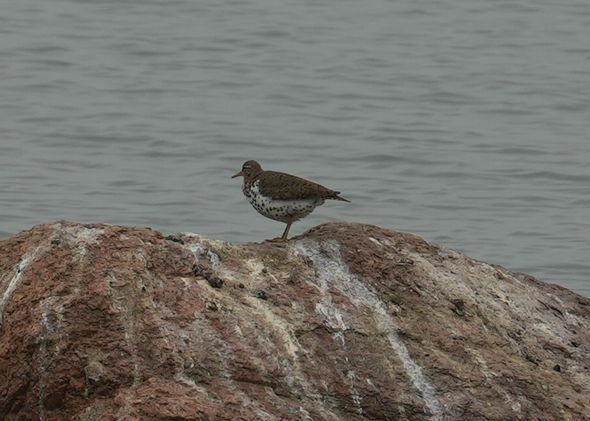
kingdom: Animalia
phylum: Chordata
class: Aves
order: Charadriiformes
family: Scolopacidae
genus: Actitis
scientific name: Actitis macularius
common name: Spotted sandpiper
